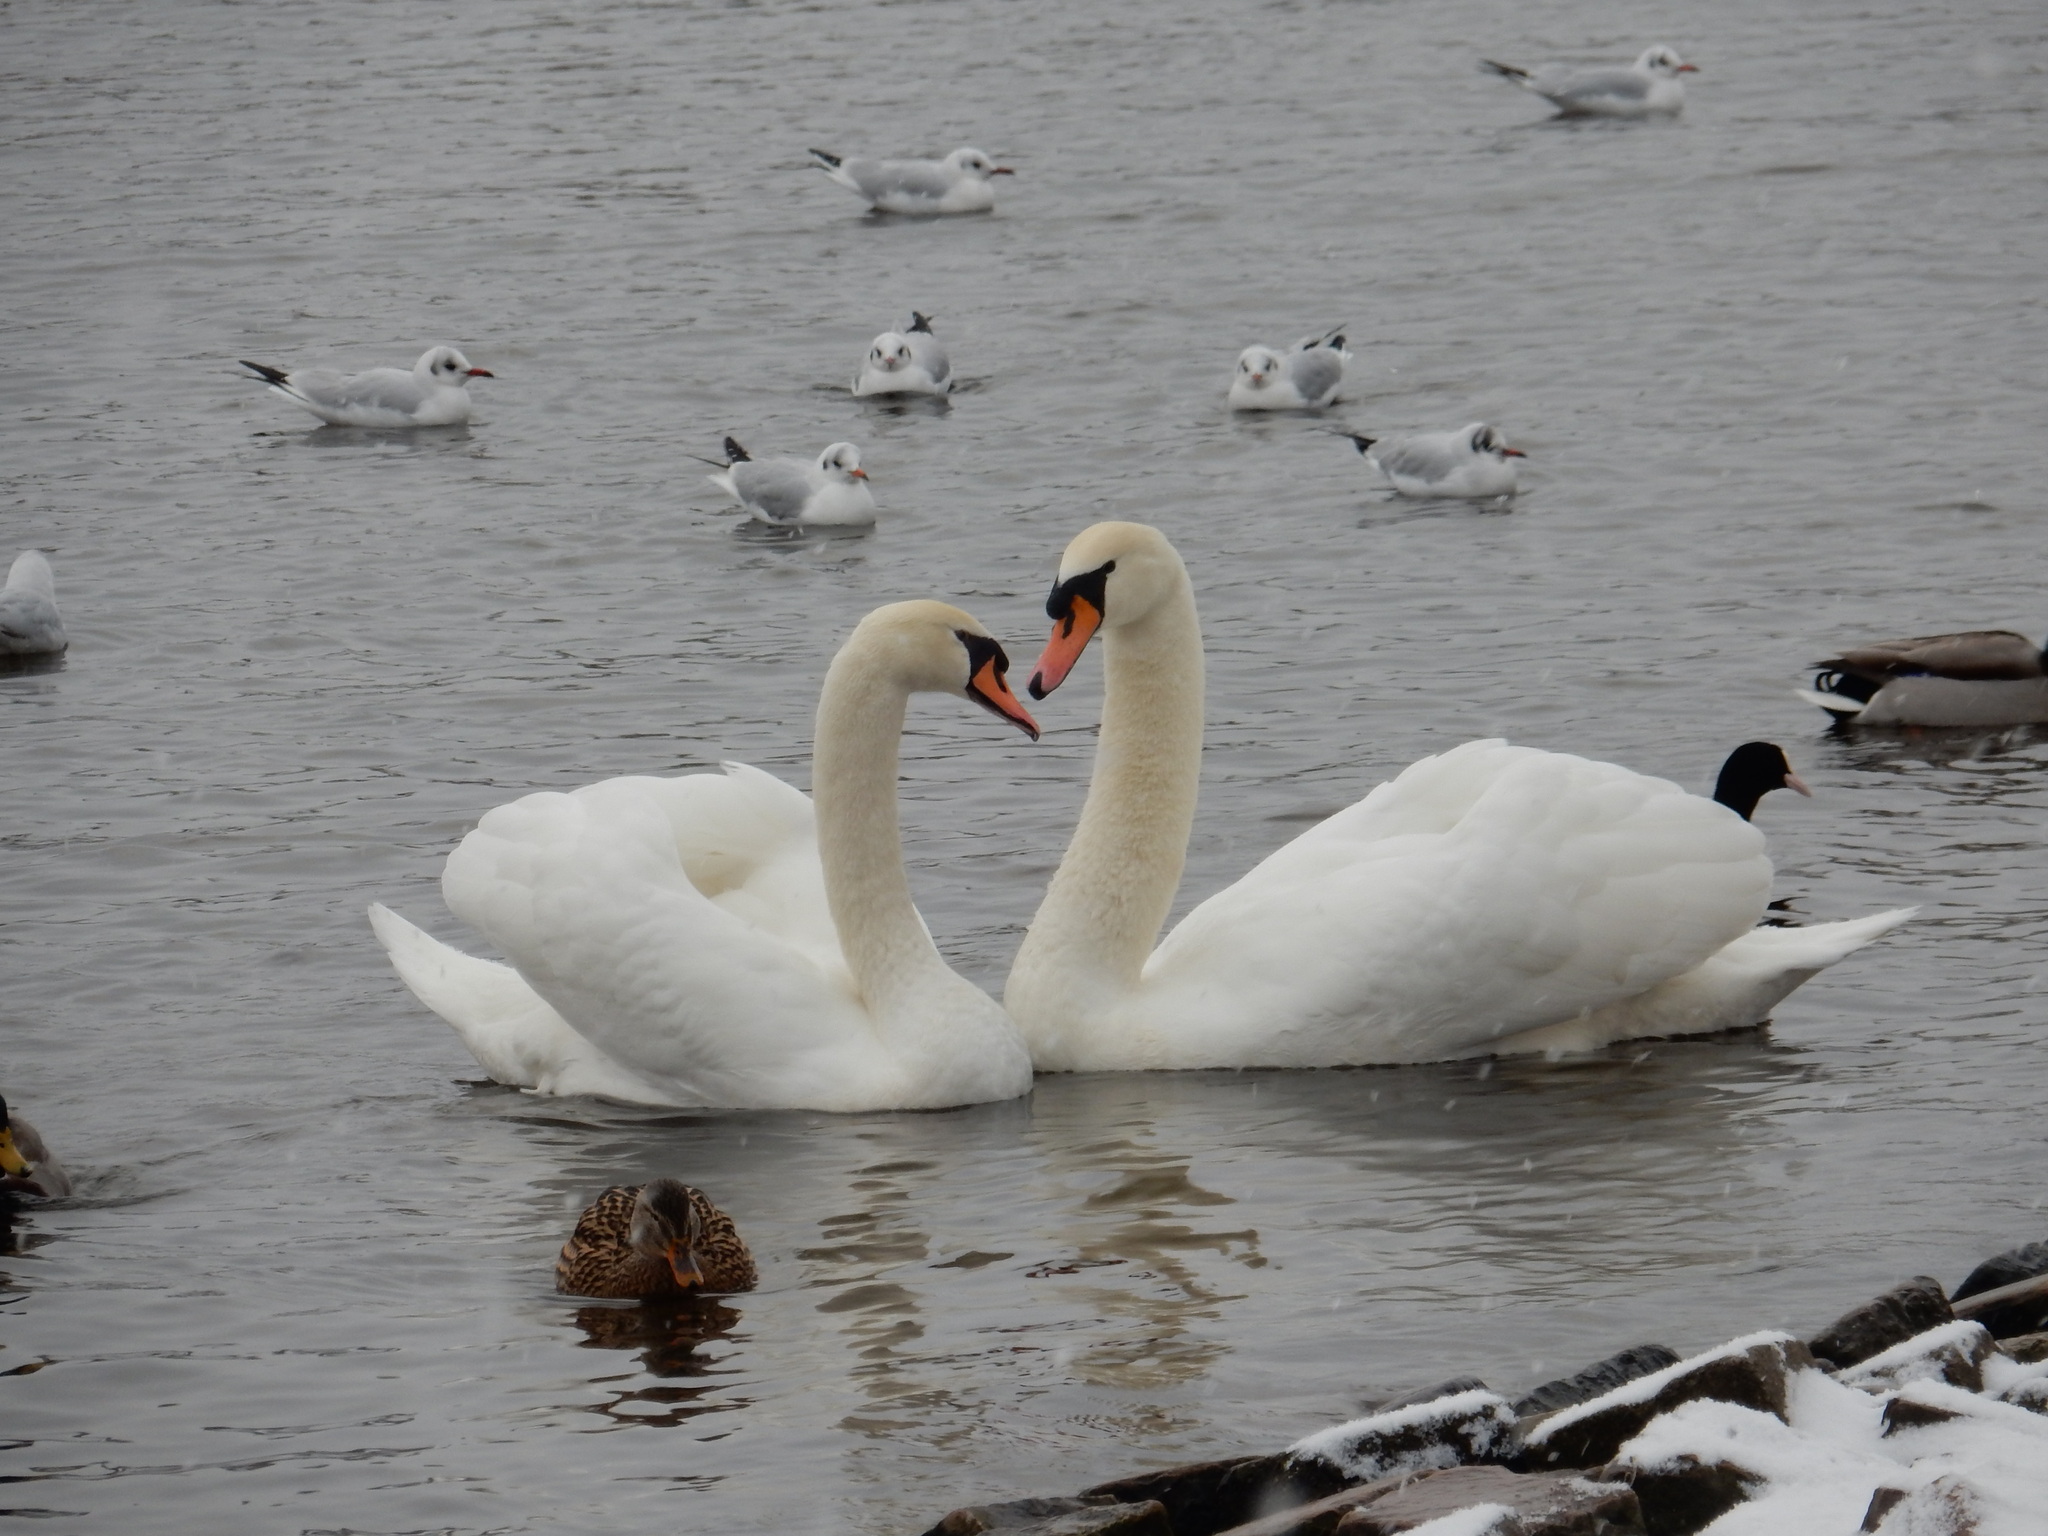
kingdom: Animalia
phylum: Chordata
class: Aves
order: Anseriformes
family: Anatidae
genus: Cygnus
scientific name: Cygnus olor
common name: Mute swan
